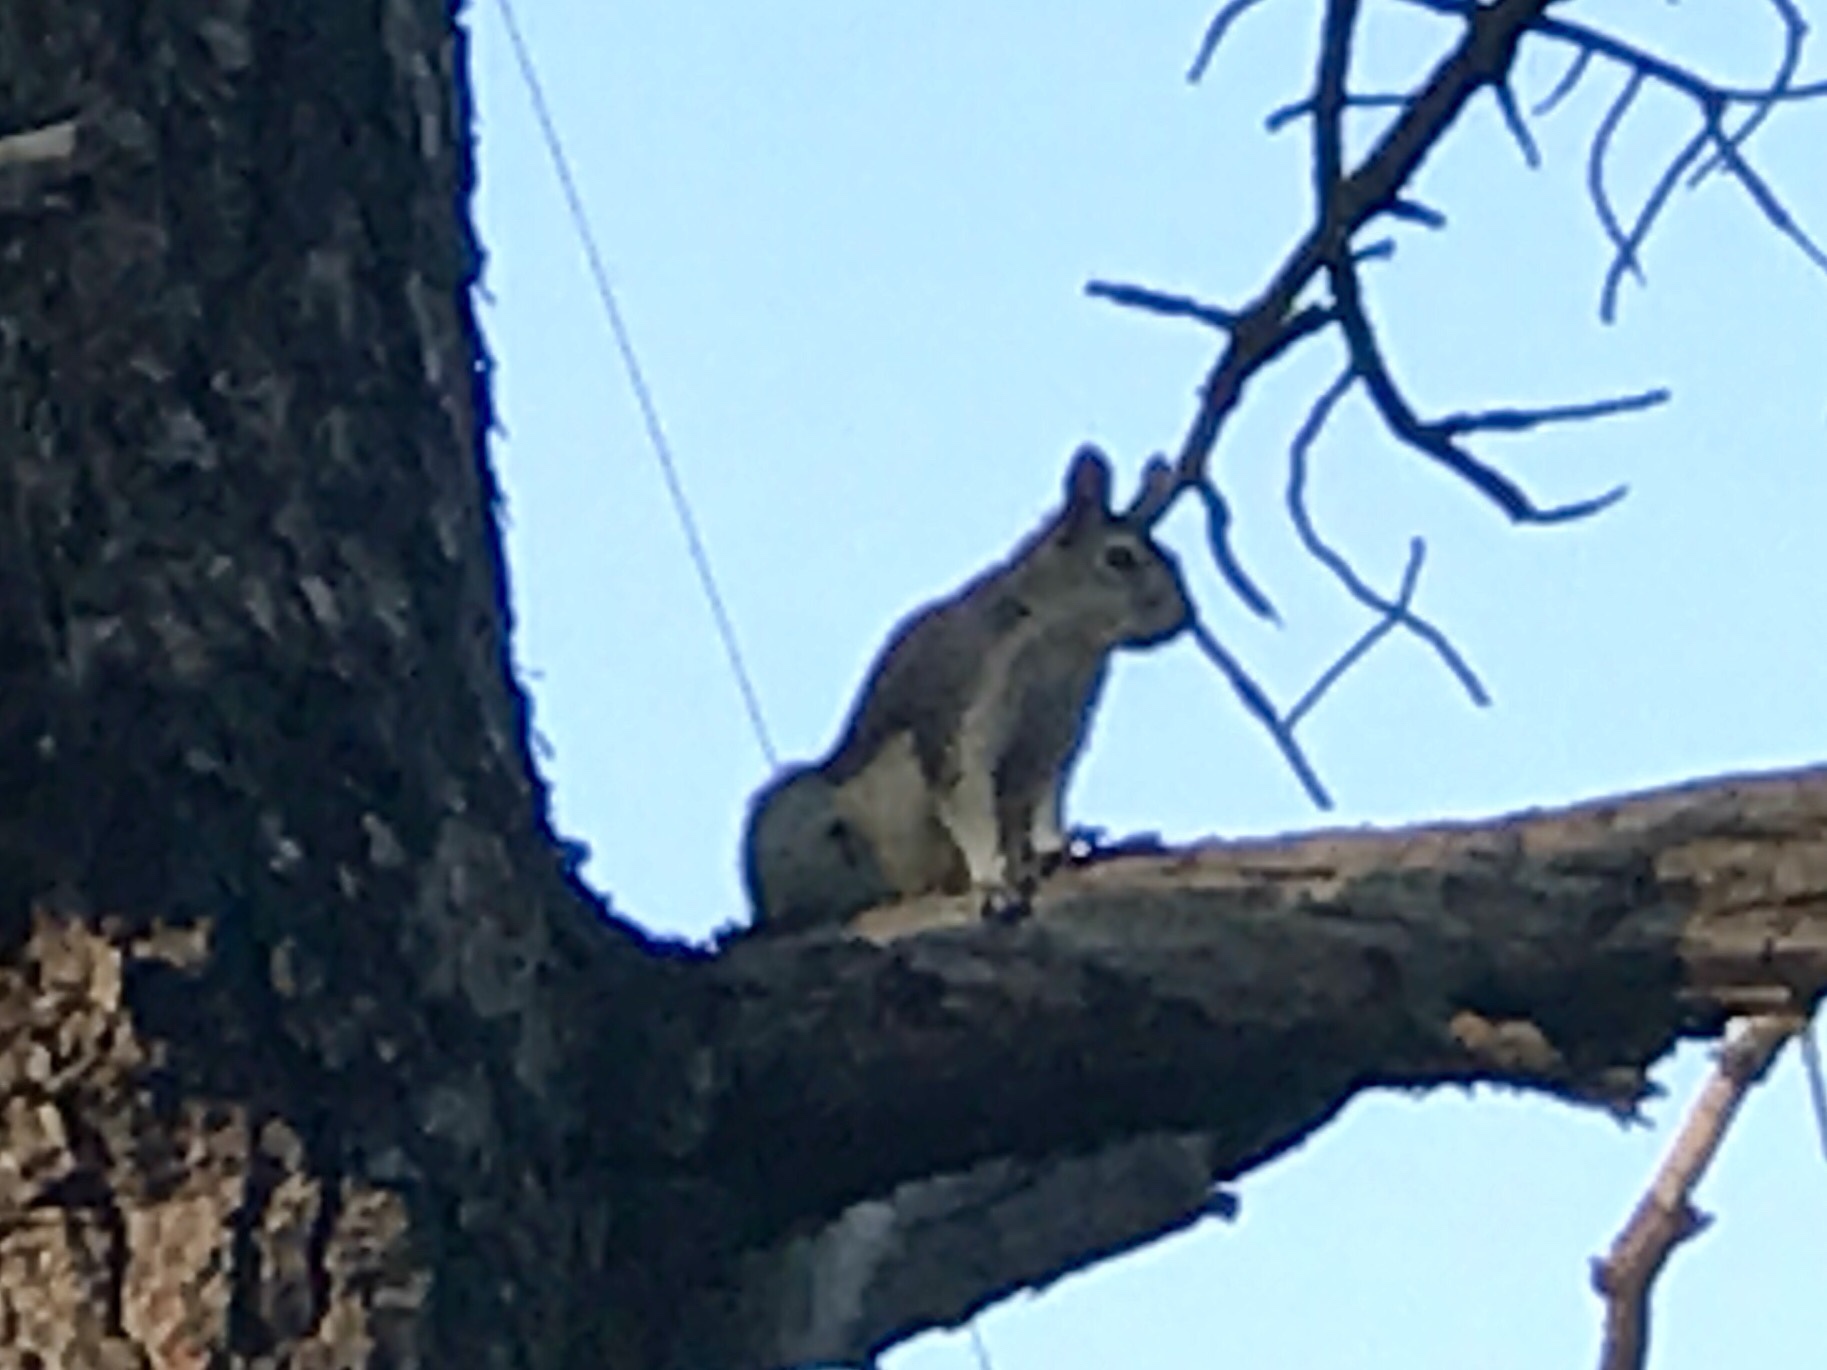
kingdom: Animalia
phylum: Chordata
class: Mammalia
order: Rodentia
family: Sciuridae
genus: Sciurus
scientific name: Sciurus aberti
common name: Abert's squirrel
